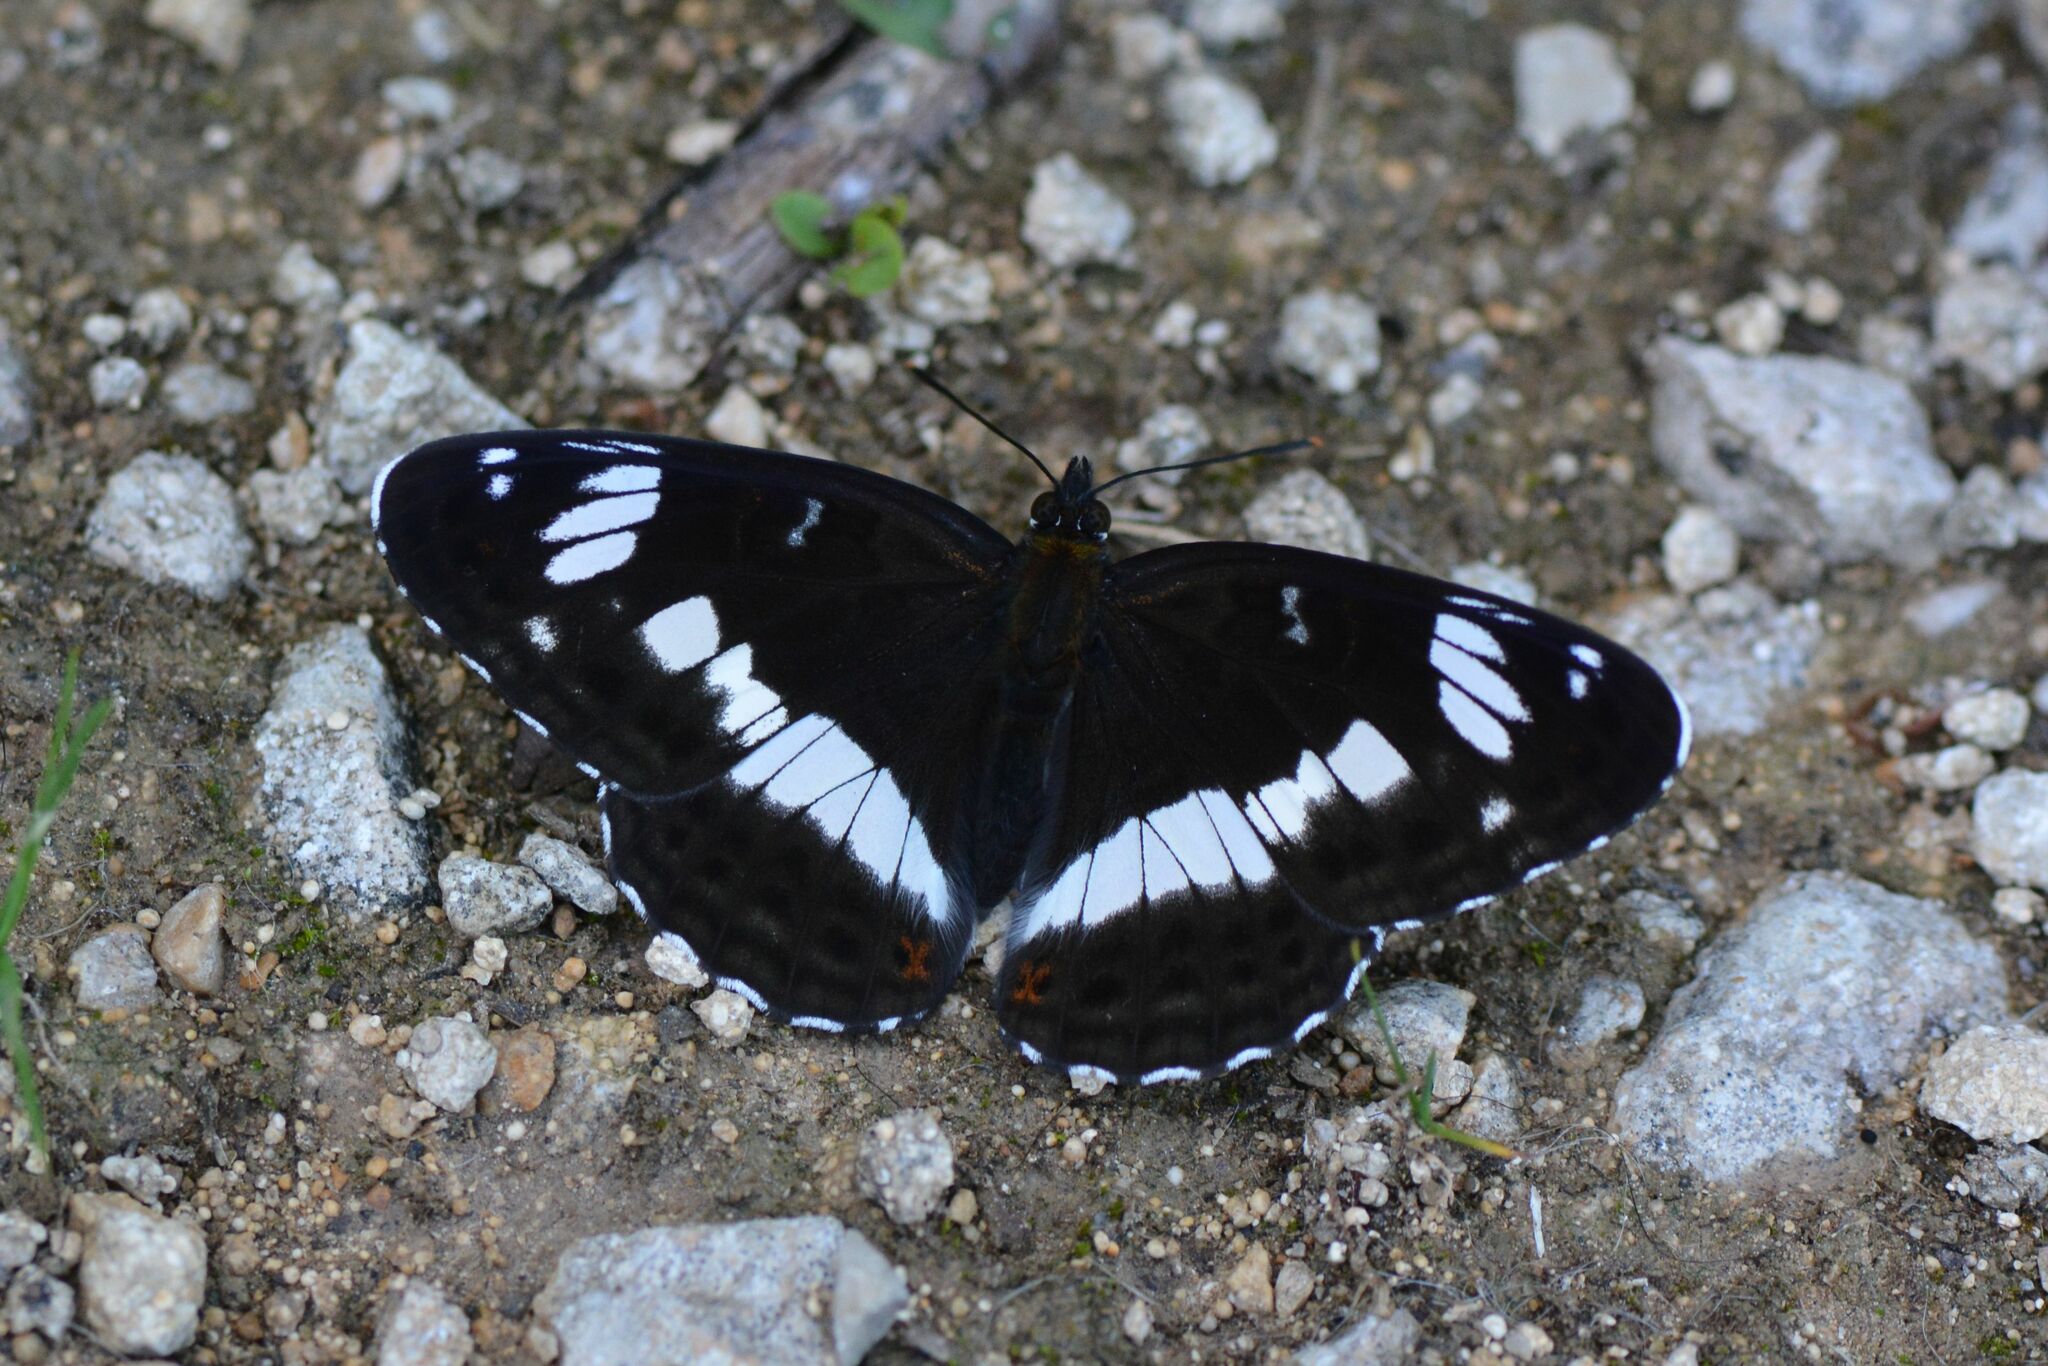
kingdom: Animalia
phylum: Arthropoda
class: Insecta
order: Lepidoptera
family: Nymphalidae
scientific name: Nymphalidae
